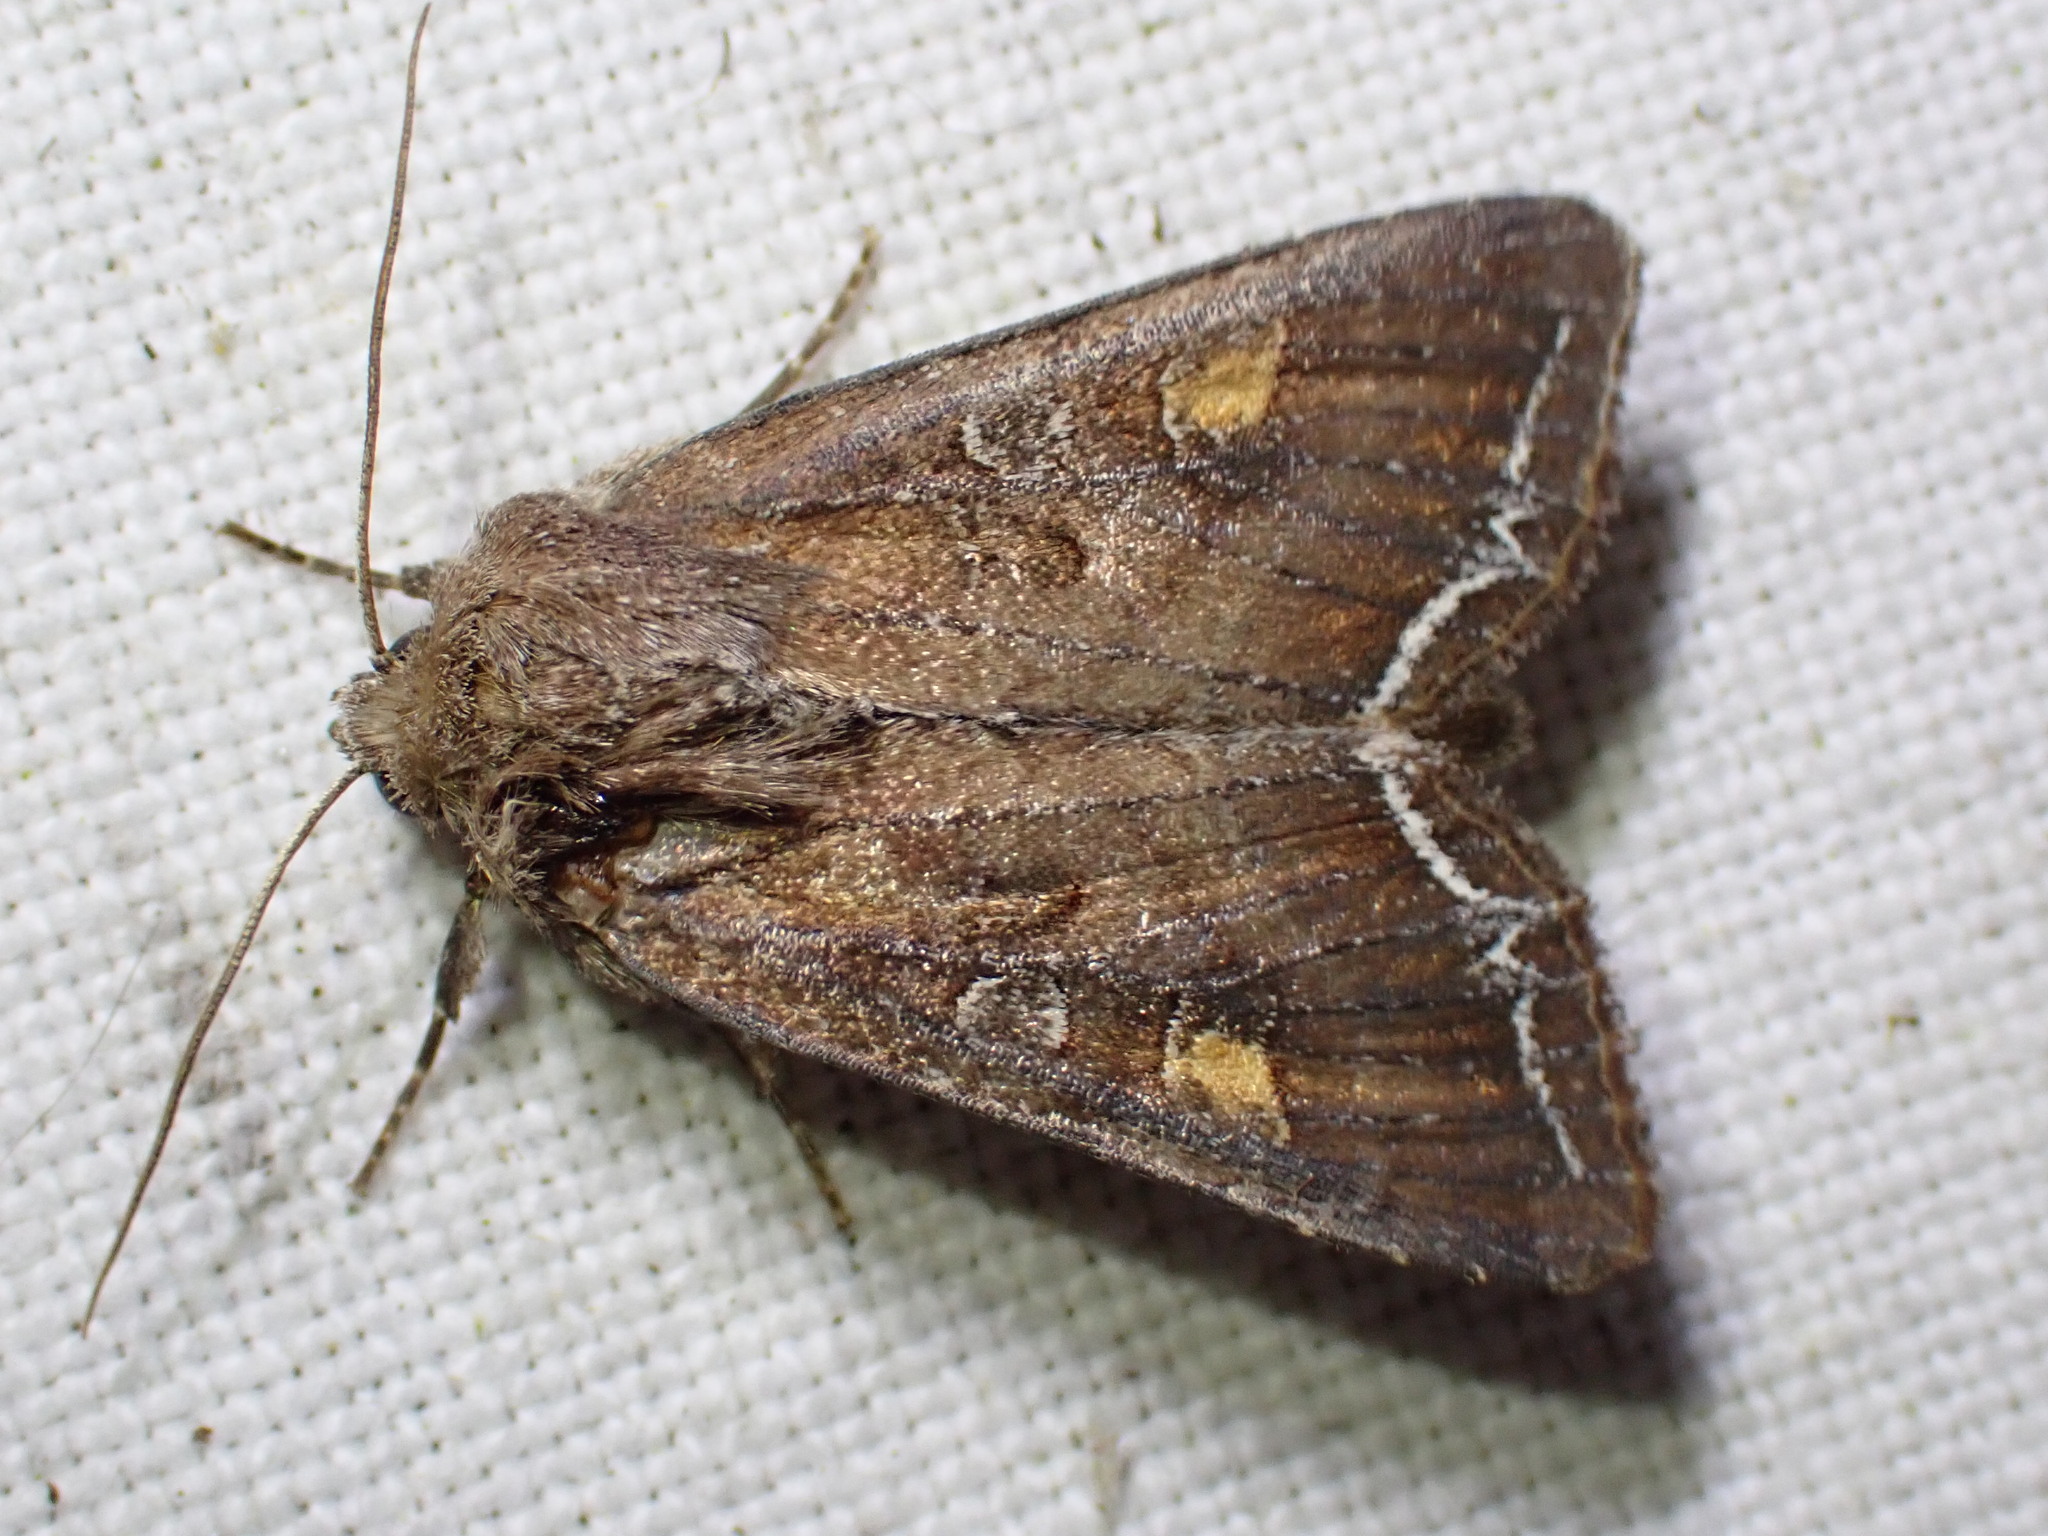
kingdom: Animalia
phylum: Arthropoda
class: Insecta
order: Lepidoptera
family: Noctuidae
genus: Lacanobia
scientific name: Lacanobia oleracea
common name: Bright-line brown-eye
